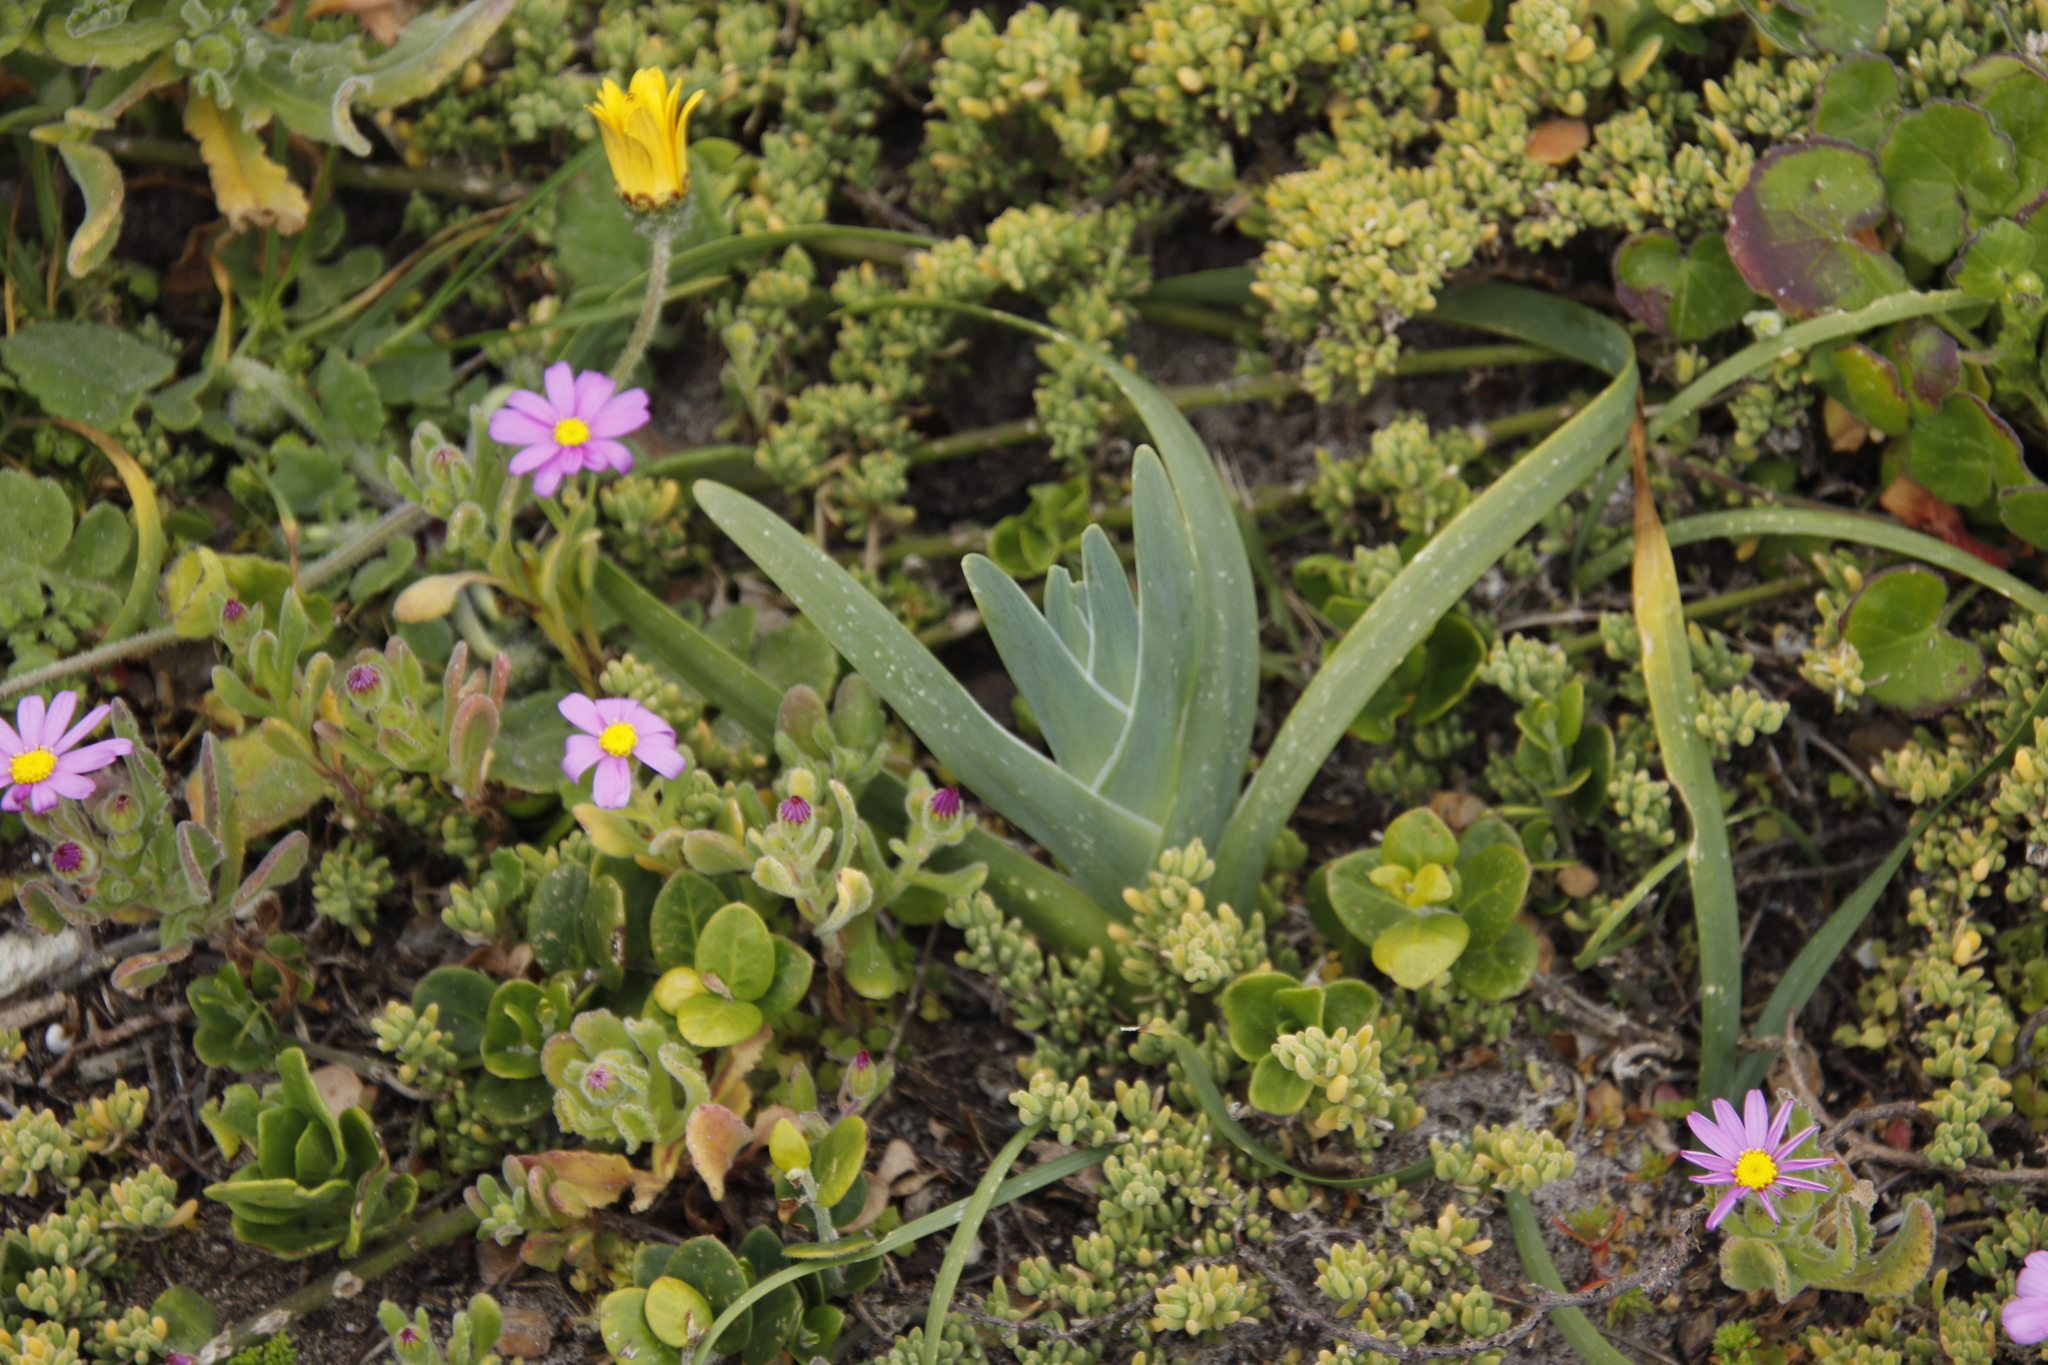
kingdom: Plantae
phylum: Tracheophyta
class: Liliopsida
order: Asparagales
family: Iridaceae
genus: Ferraria
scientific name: Ferraria crispa
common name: Black-flag
